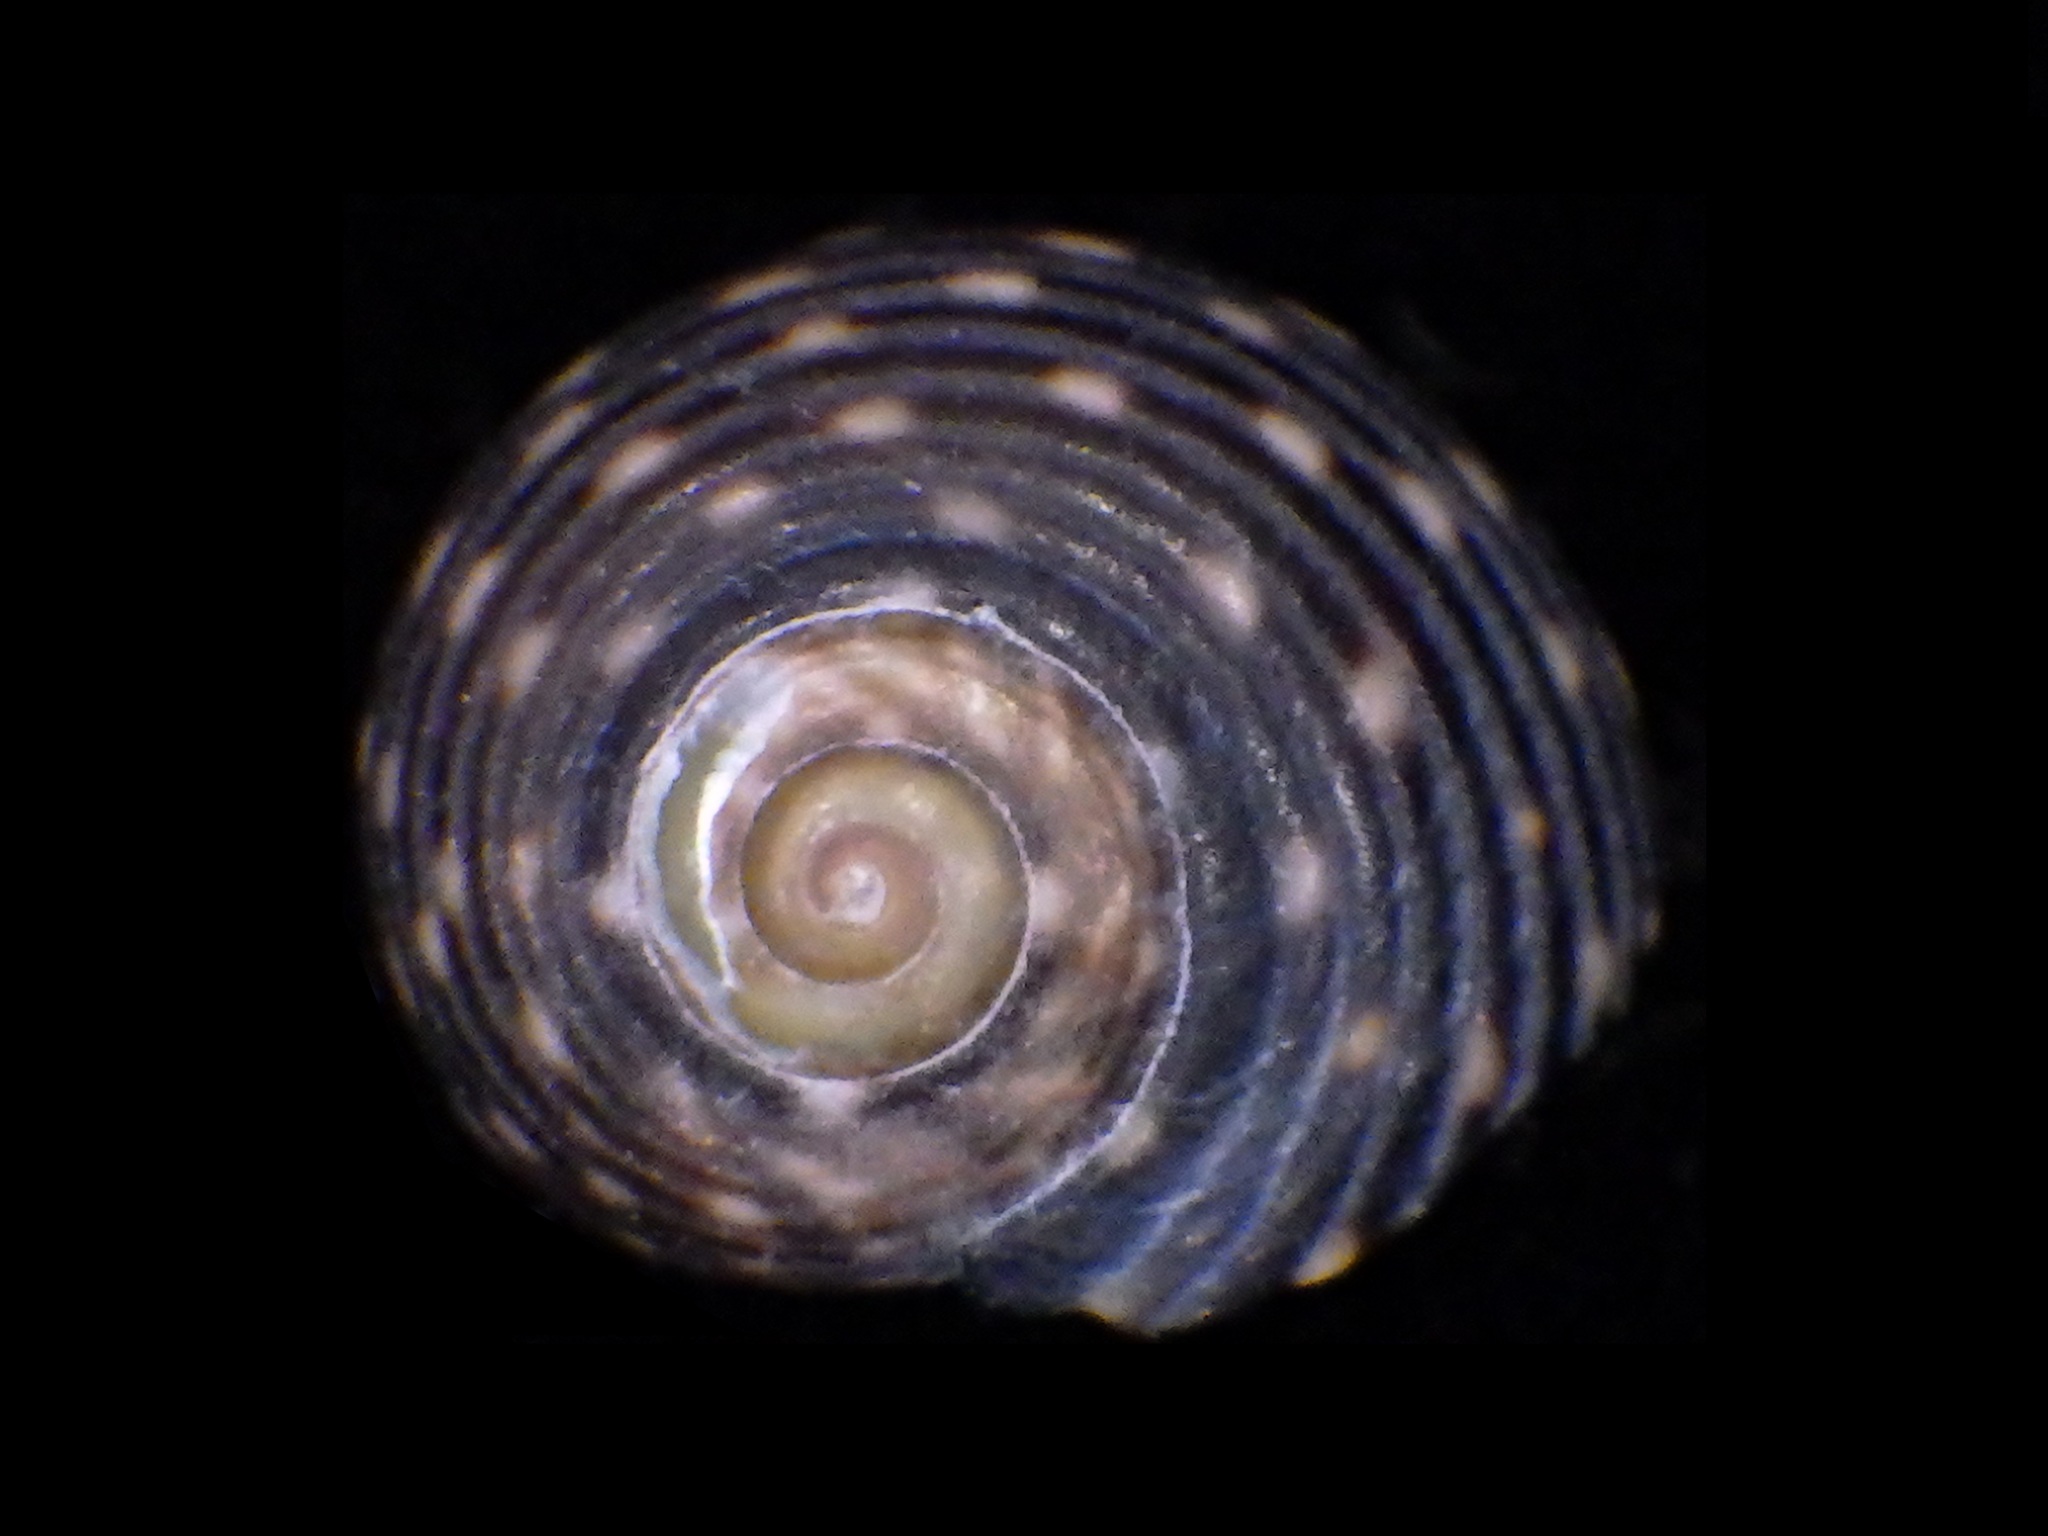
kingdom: Animalia
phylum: Mollusca
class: Gastropoda
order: Trochida
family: Trochidae
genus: Diloma
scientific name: Diloma zelandicum
